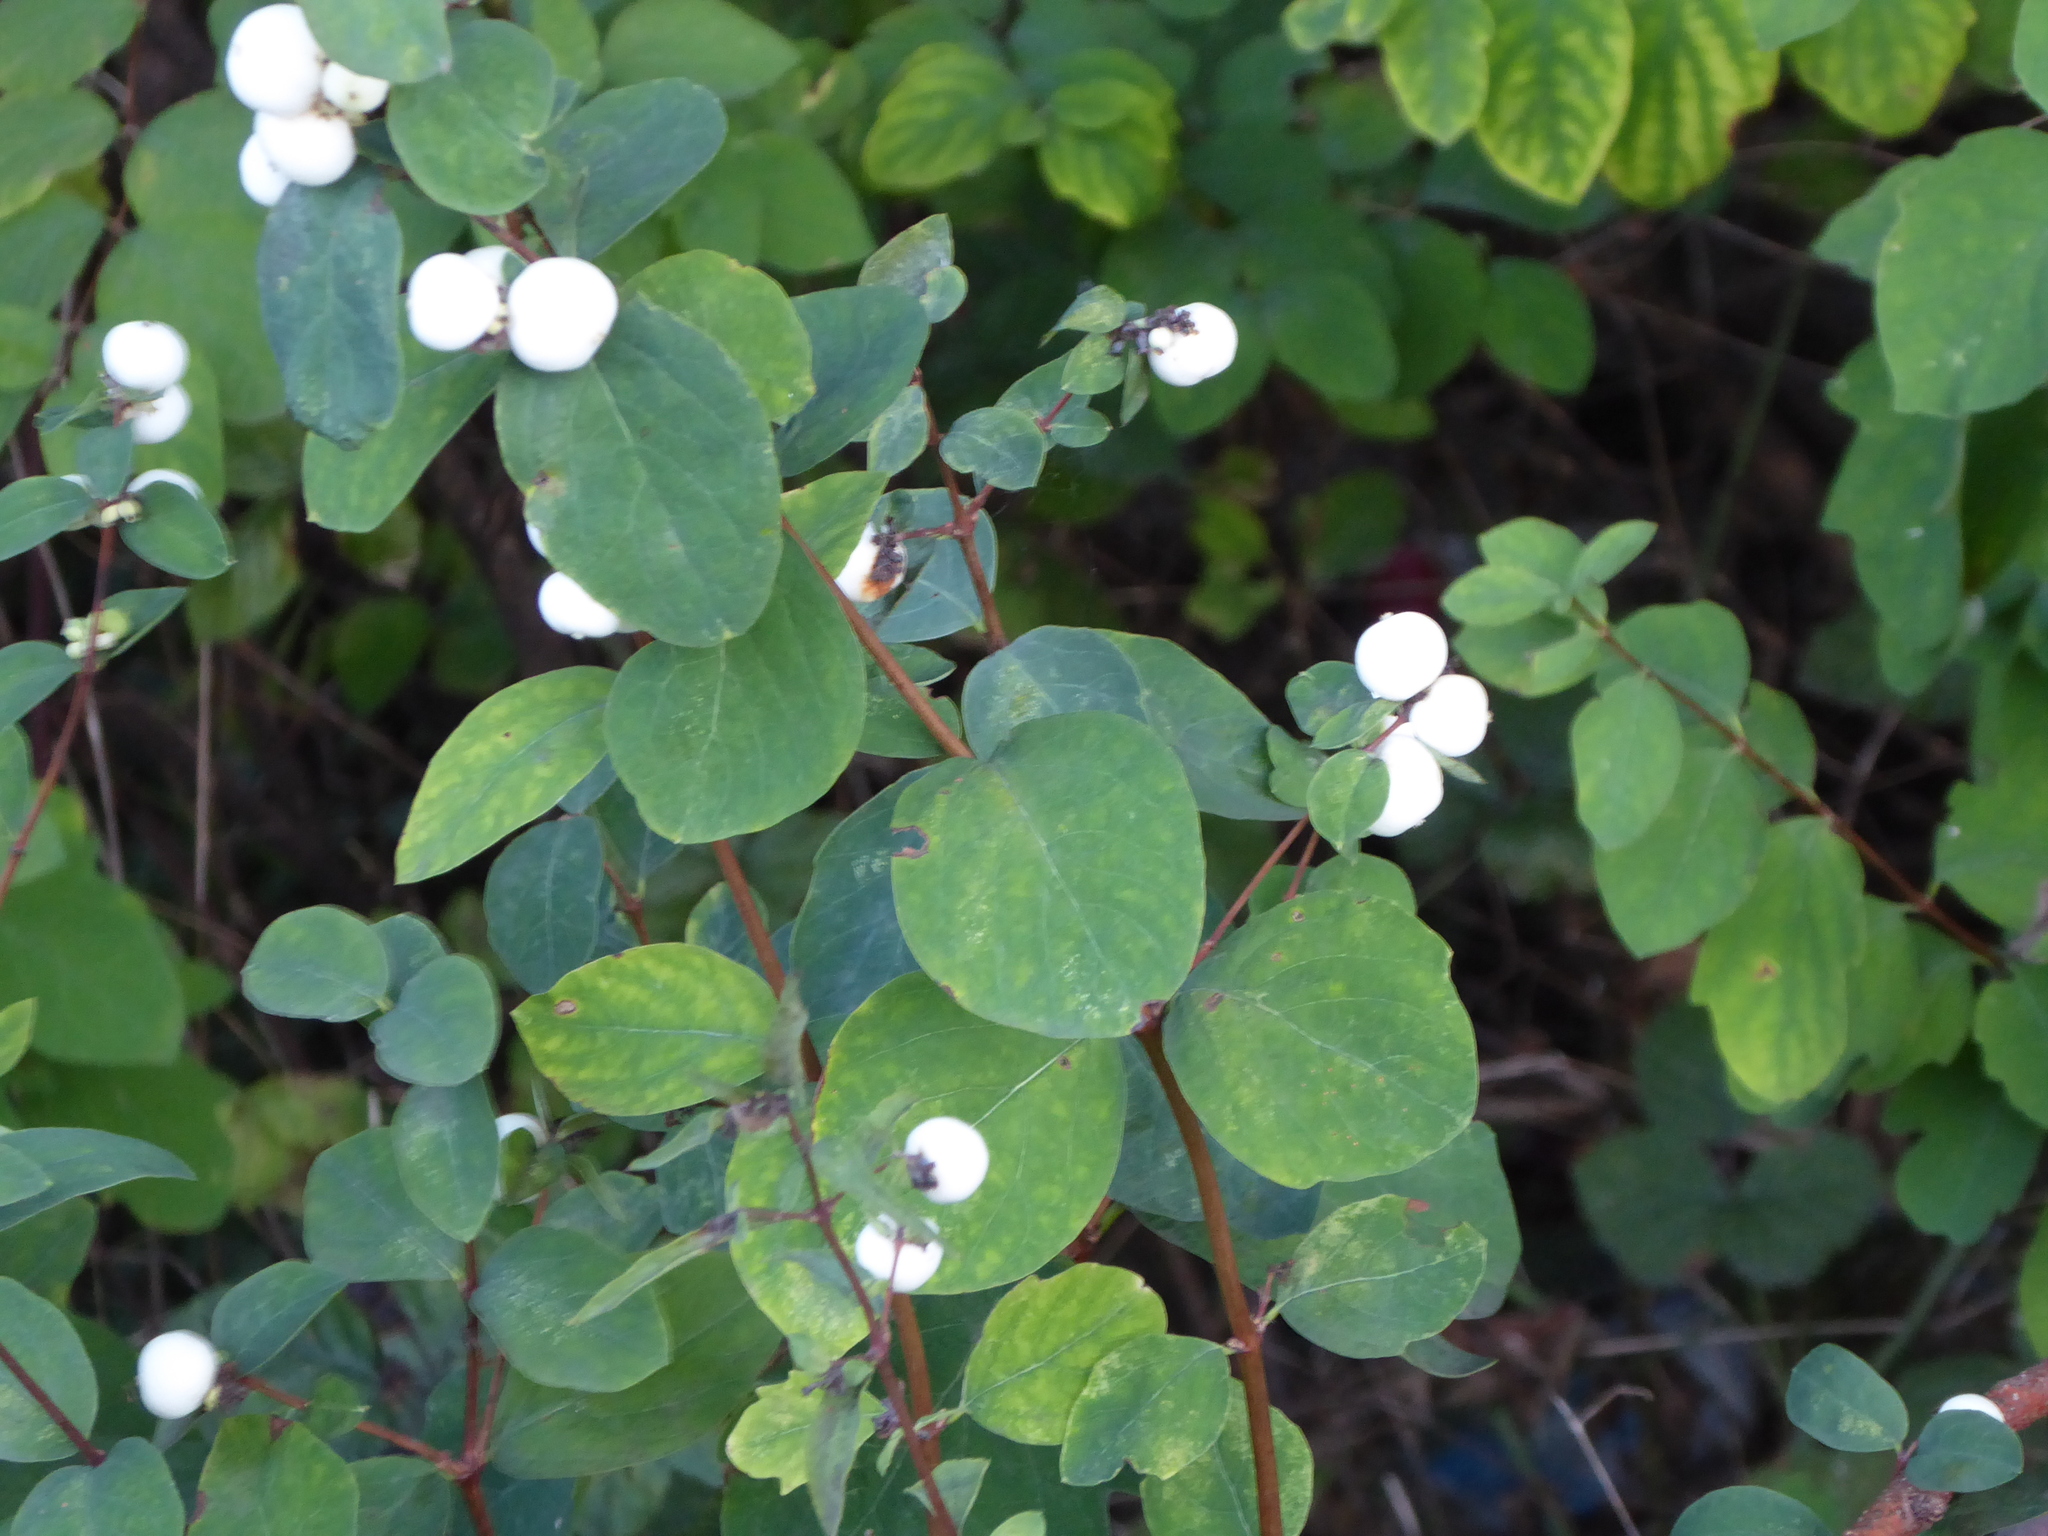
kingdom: Plantae
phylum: Tracheophyta
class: Magnoliopsida
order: Dipsacales
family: Caprifoliaceae
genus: Symphoricarpos
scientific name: Symphoricarpos albus
